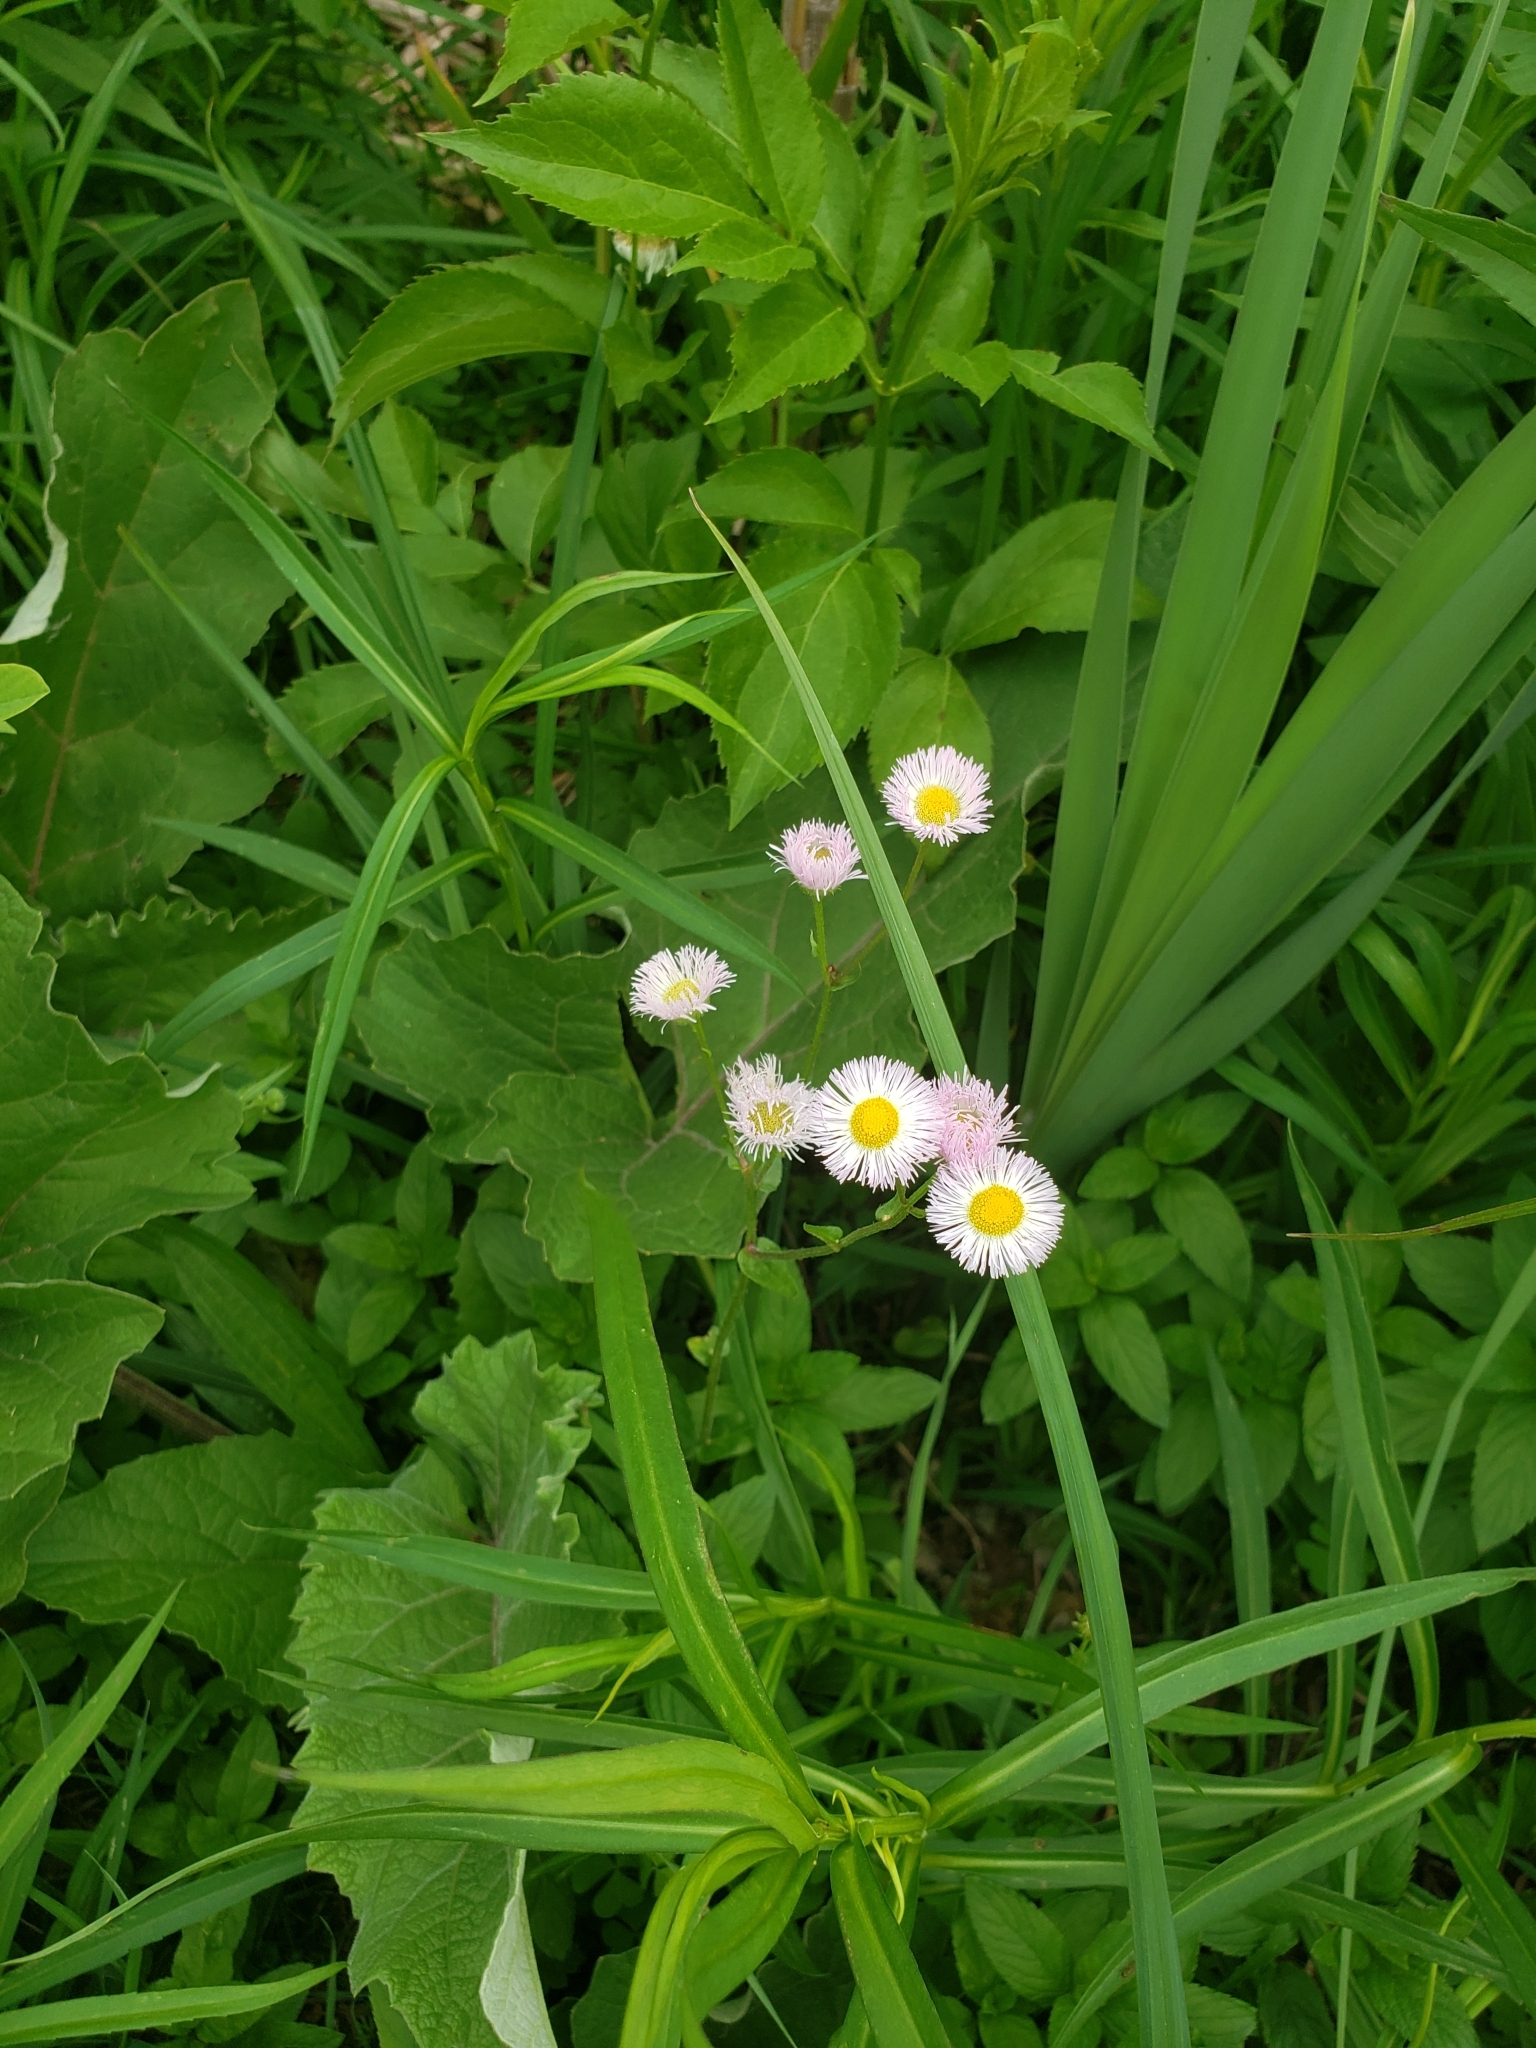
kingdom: Plantae
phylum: Tracheophyta
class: Magnoliopsida
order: Asterales
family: Asteraceae
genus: Erigeron
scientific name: Erigeron philadelphicus
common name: Robin's-plantain
